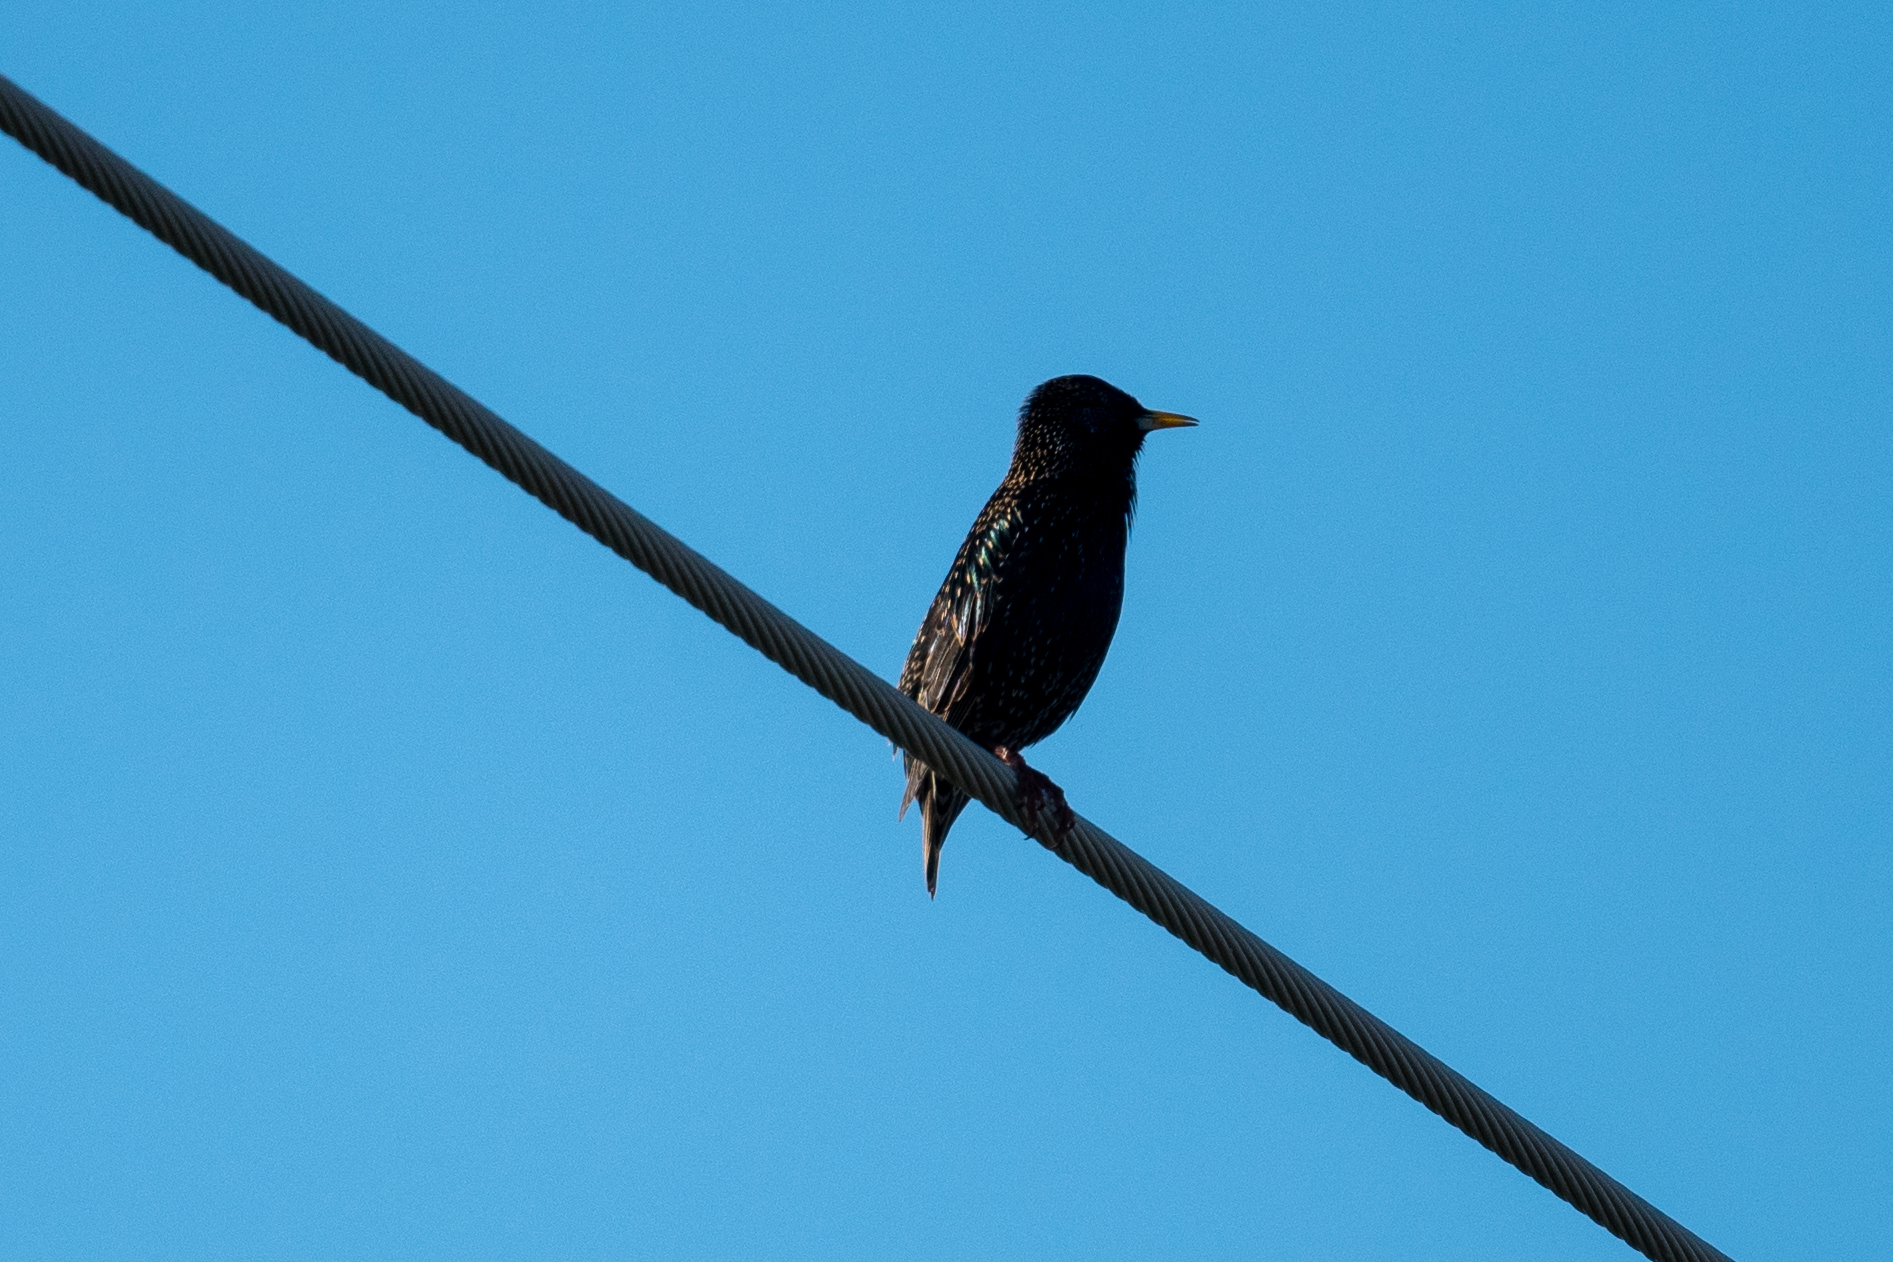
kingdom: Animalia
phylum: Chordata
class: Aves
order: Passeriformes
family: Sturnidae
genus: Sturnus
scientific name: Sturnus vulgaris
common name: Common starling
